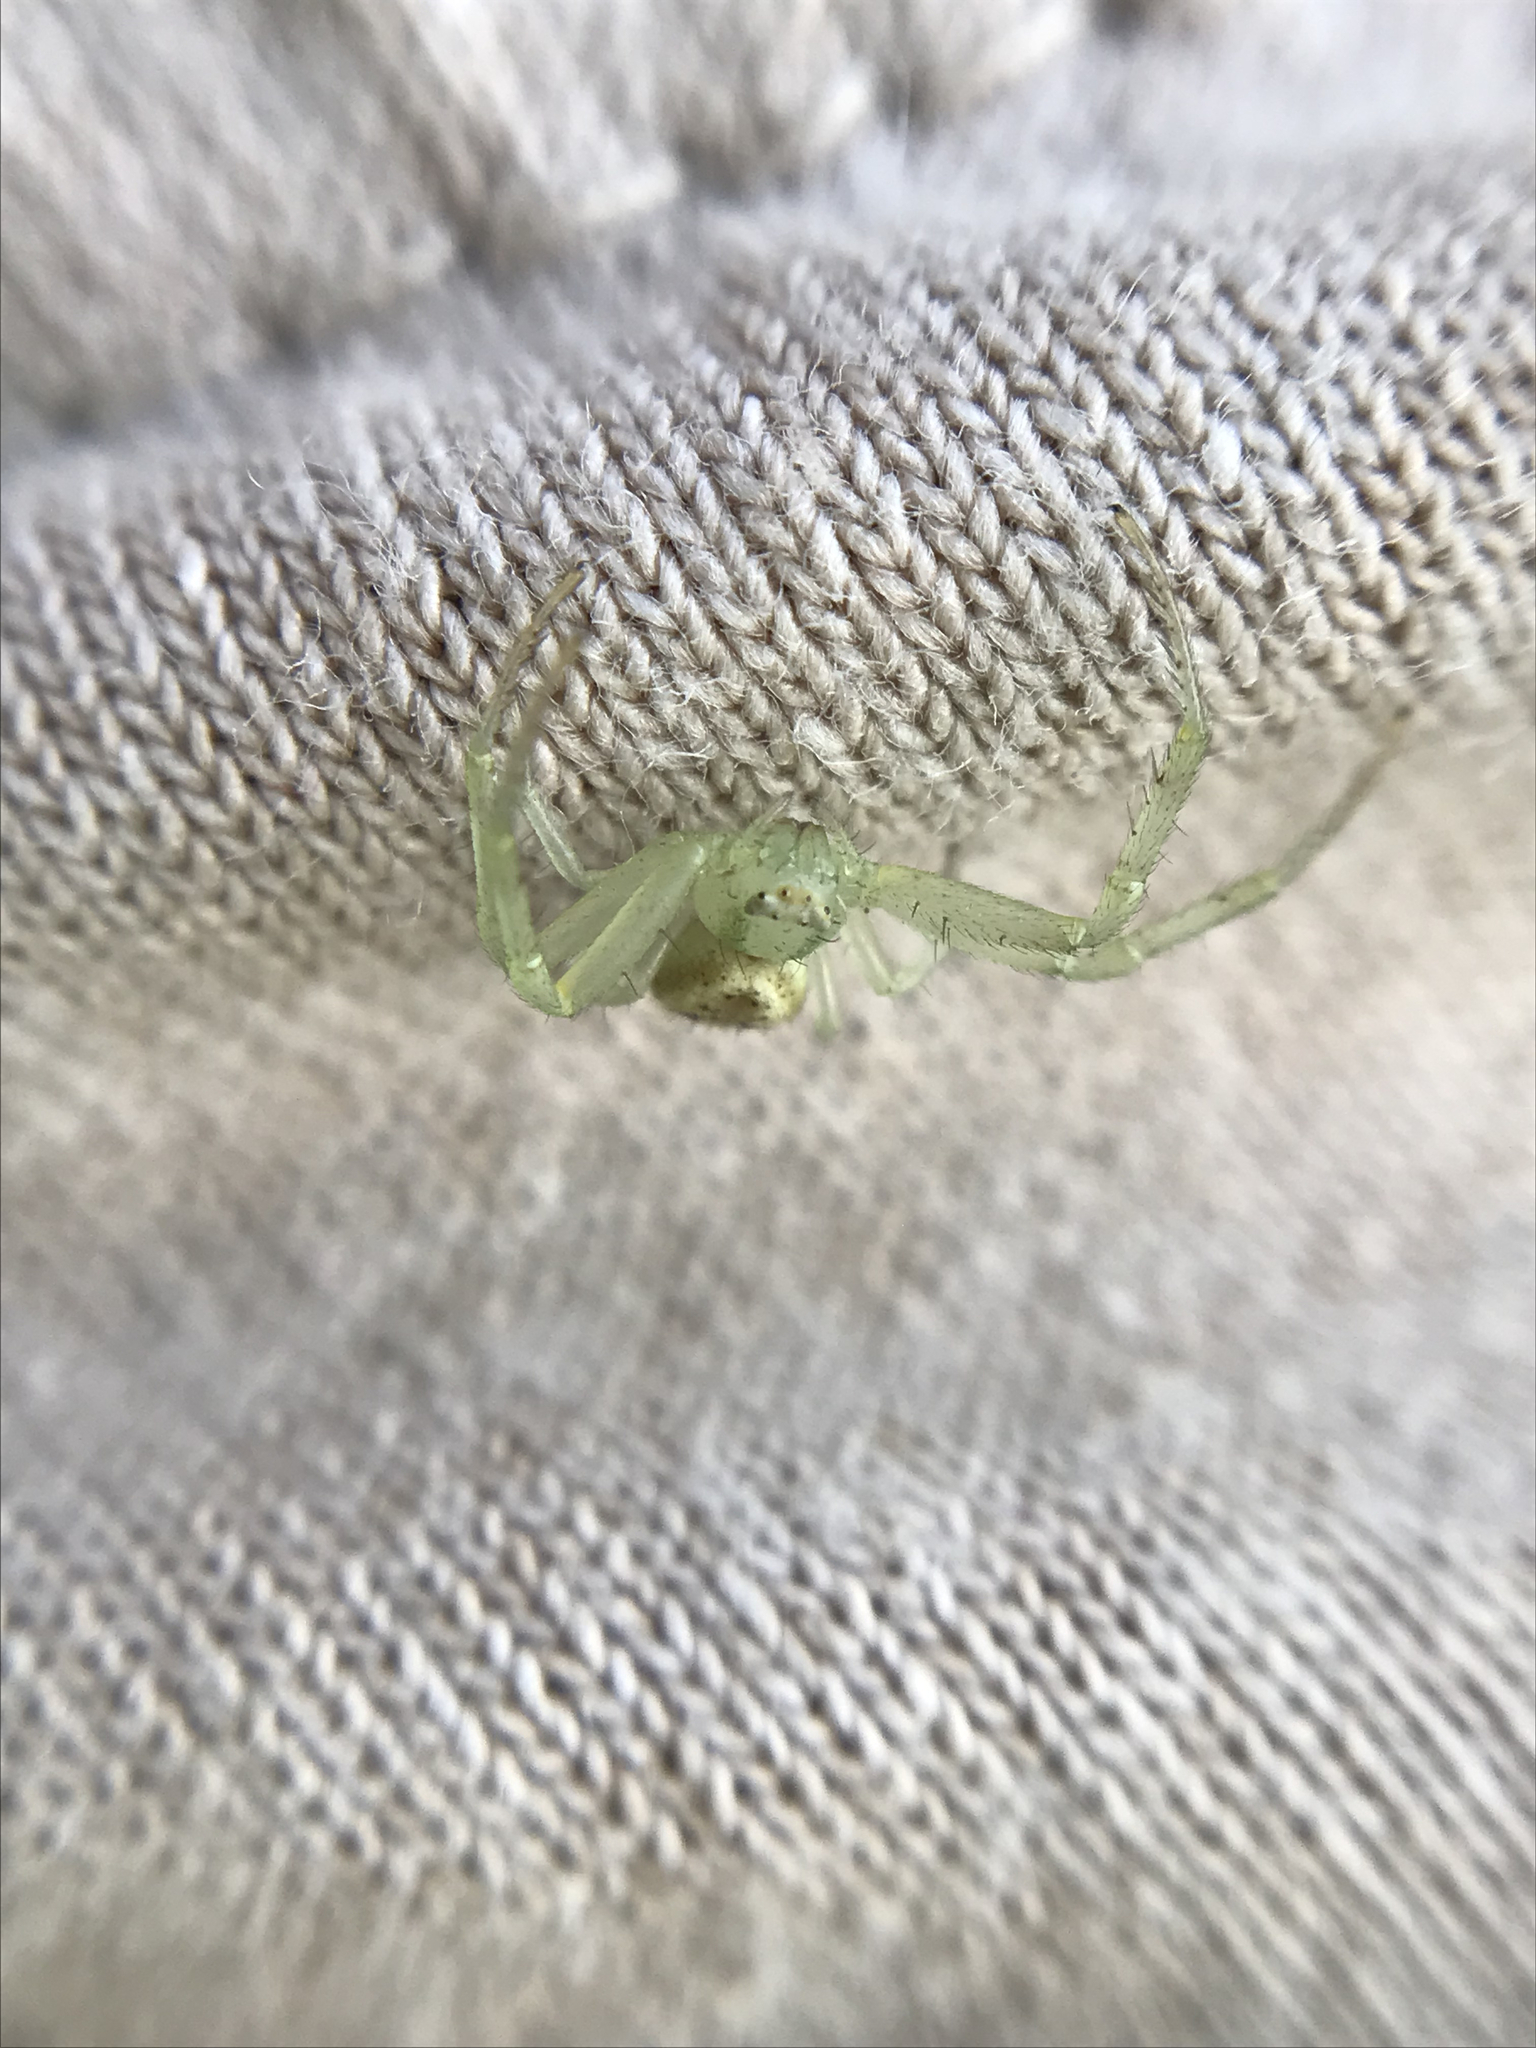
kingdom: Animalia
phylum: Arthropoda
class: Arachnida
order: Araneae
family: Thomisidae
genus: Misumenops
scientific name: Misumenops
